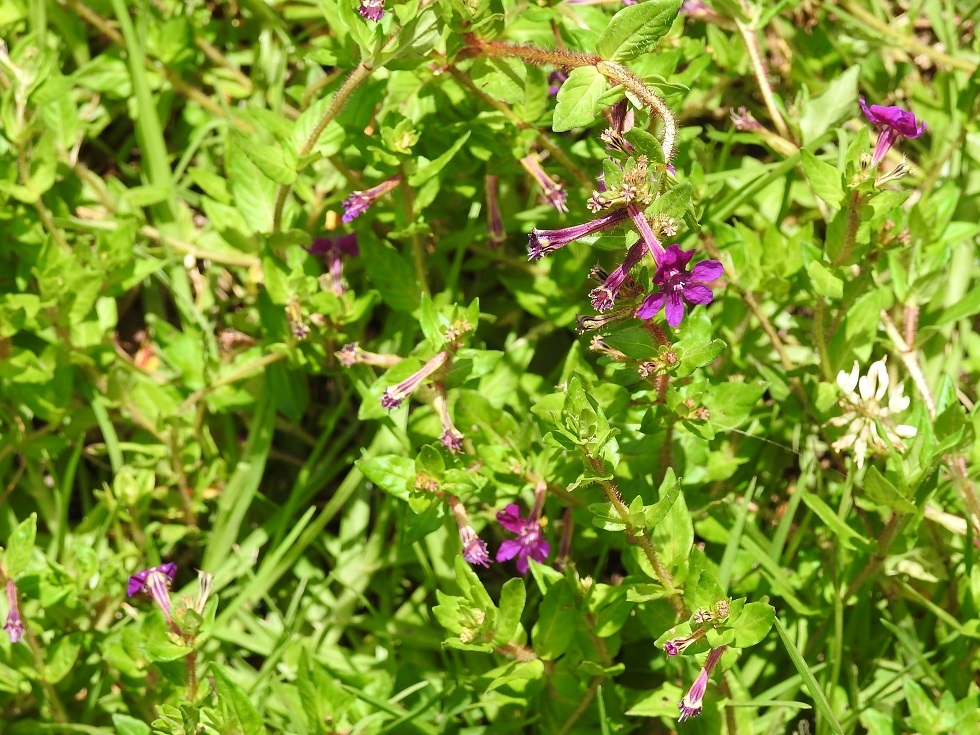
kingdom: Plantae
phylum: Tracheophyta
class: Magnoliopsida
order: Myrtales
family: Lythraceae
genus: Cuphea
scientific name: Cuphea aequipetala
